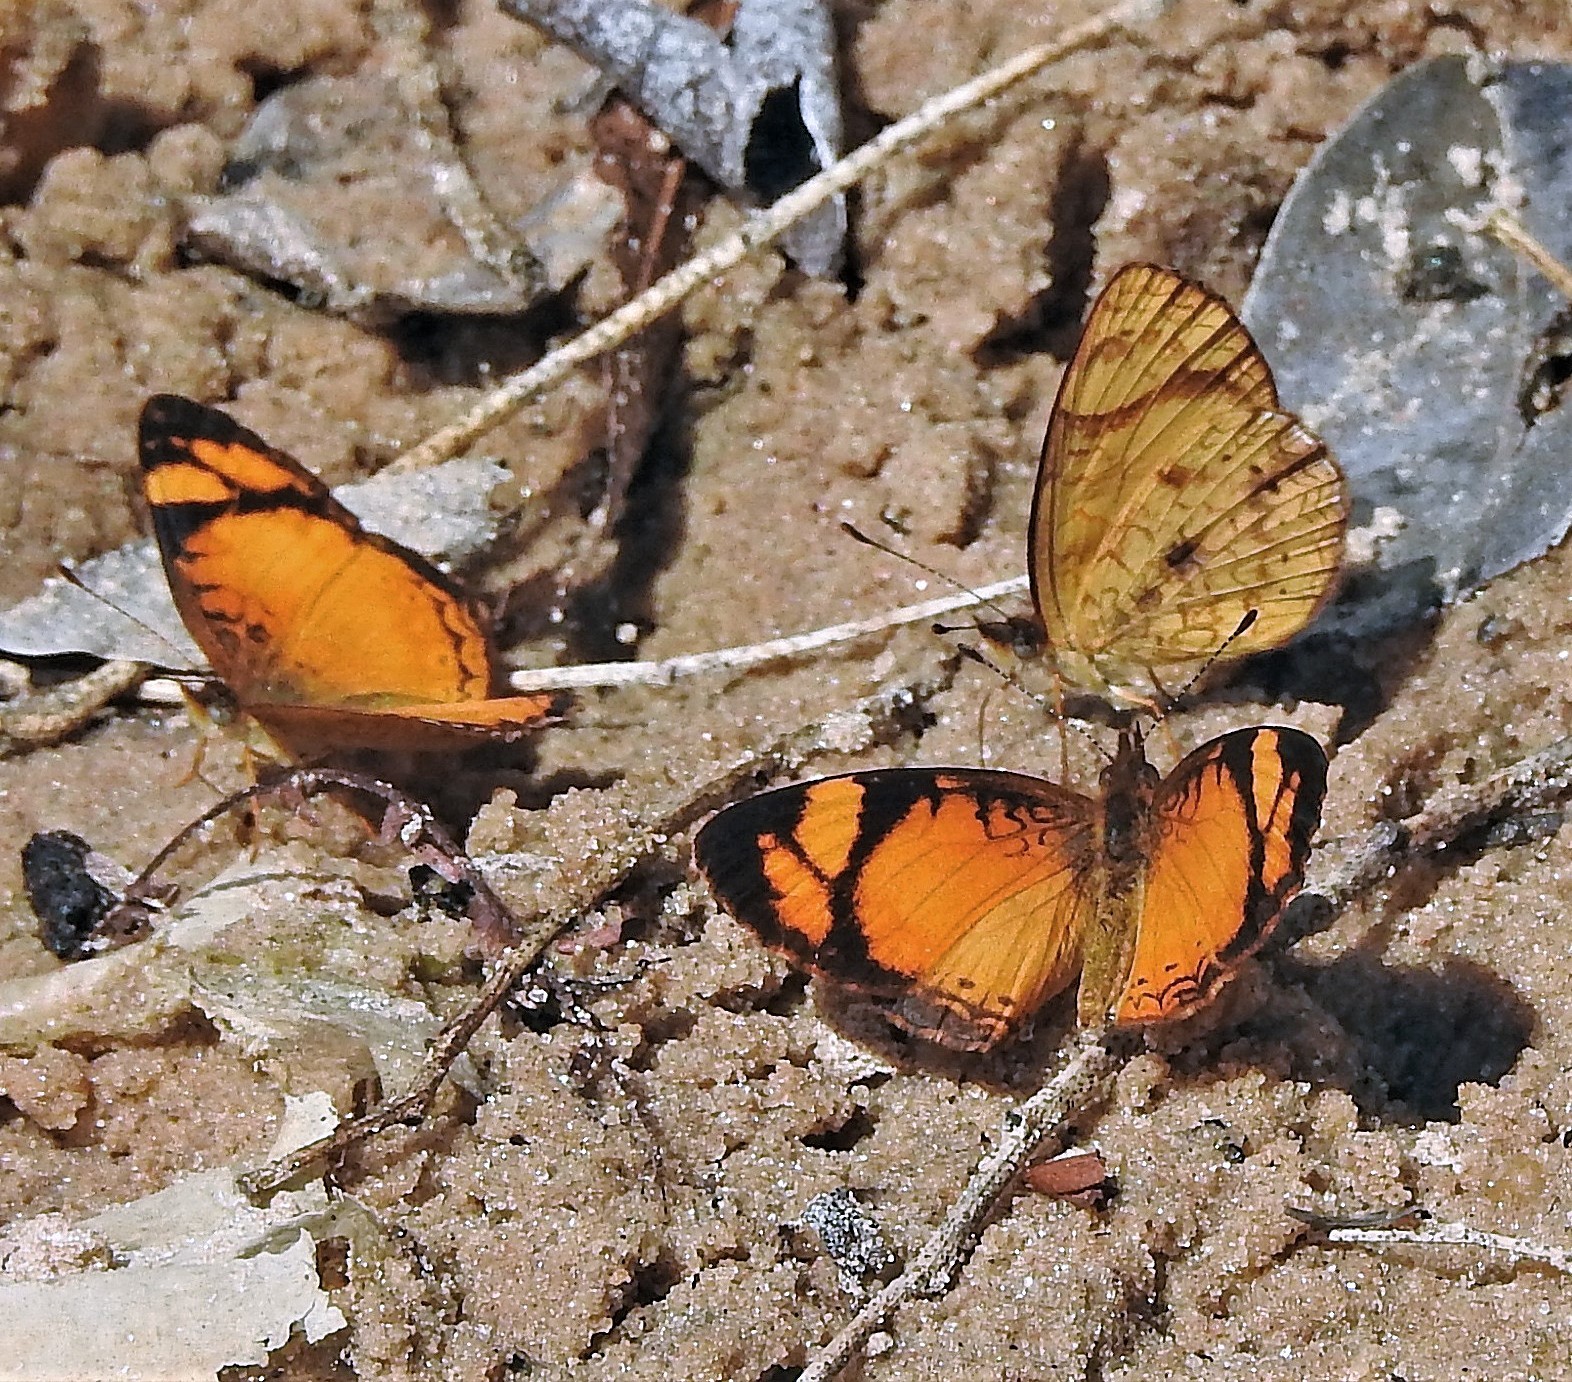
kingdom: Animalia
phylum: Arthropoda
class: Insecta
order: Lepidoptera
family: Nymphalidae
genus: Tegosa
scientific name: Tegosa claudina
